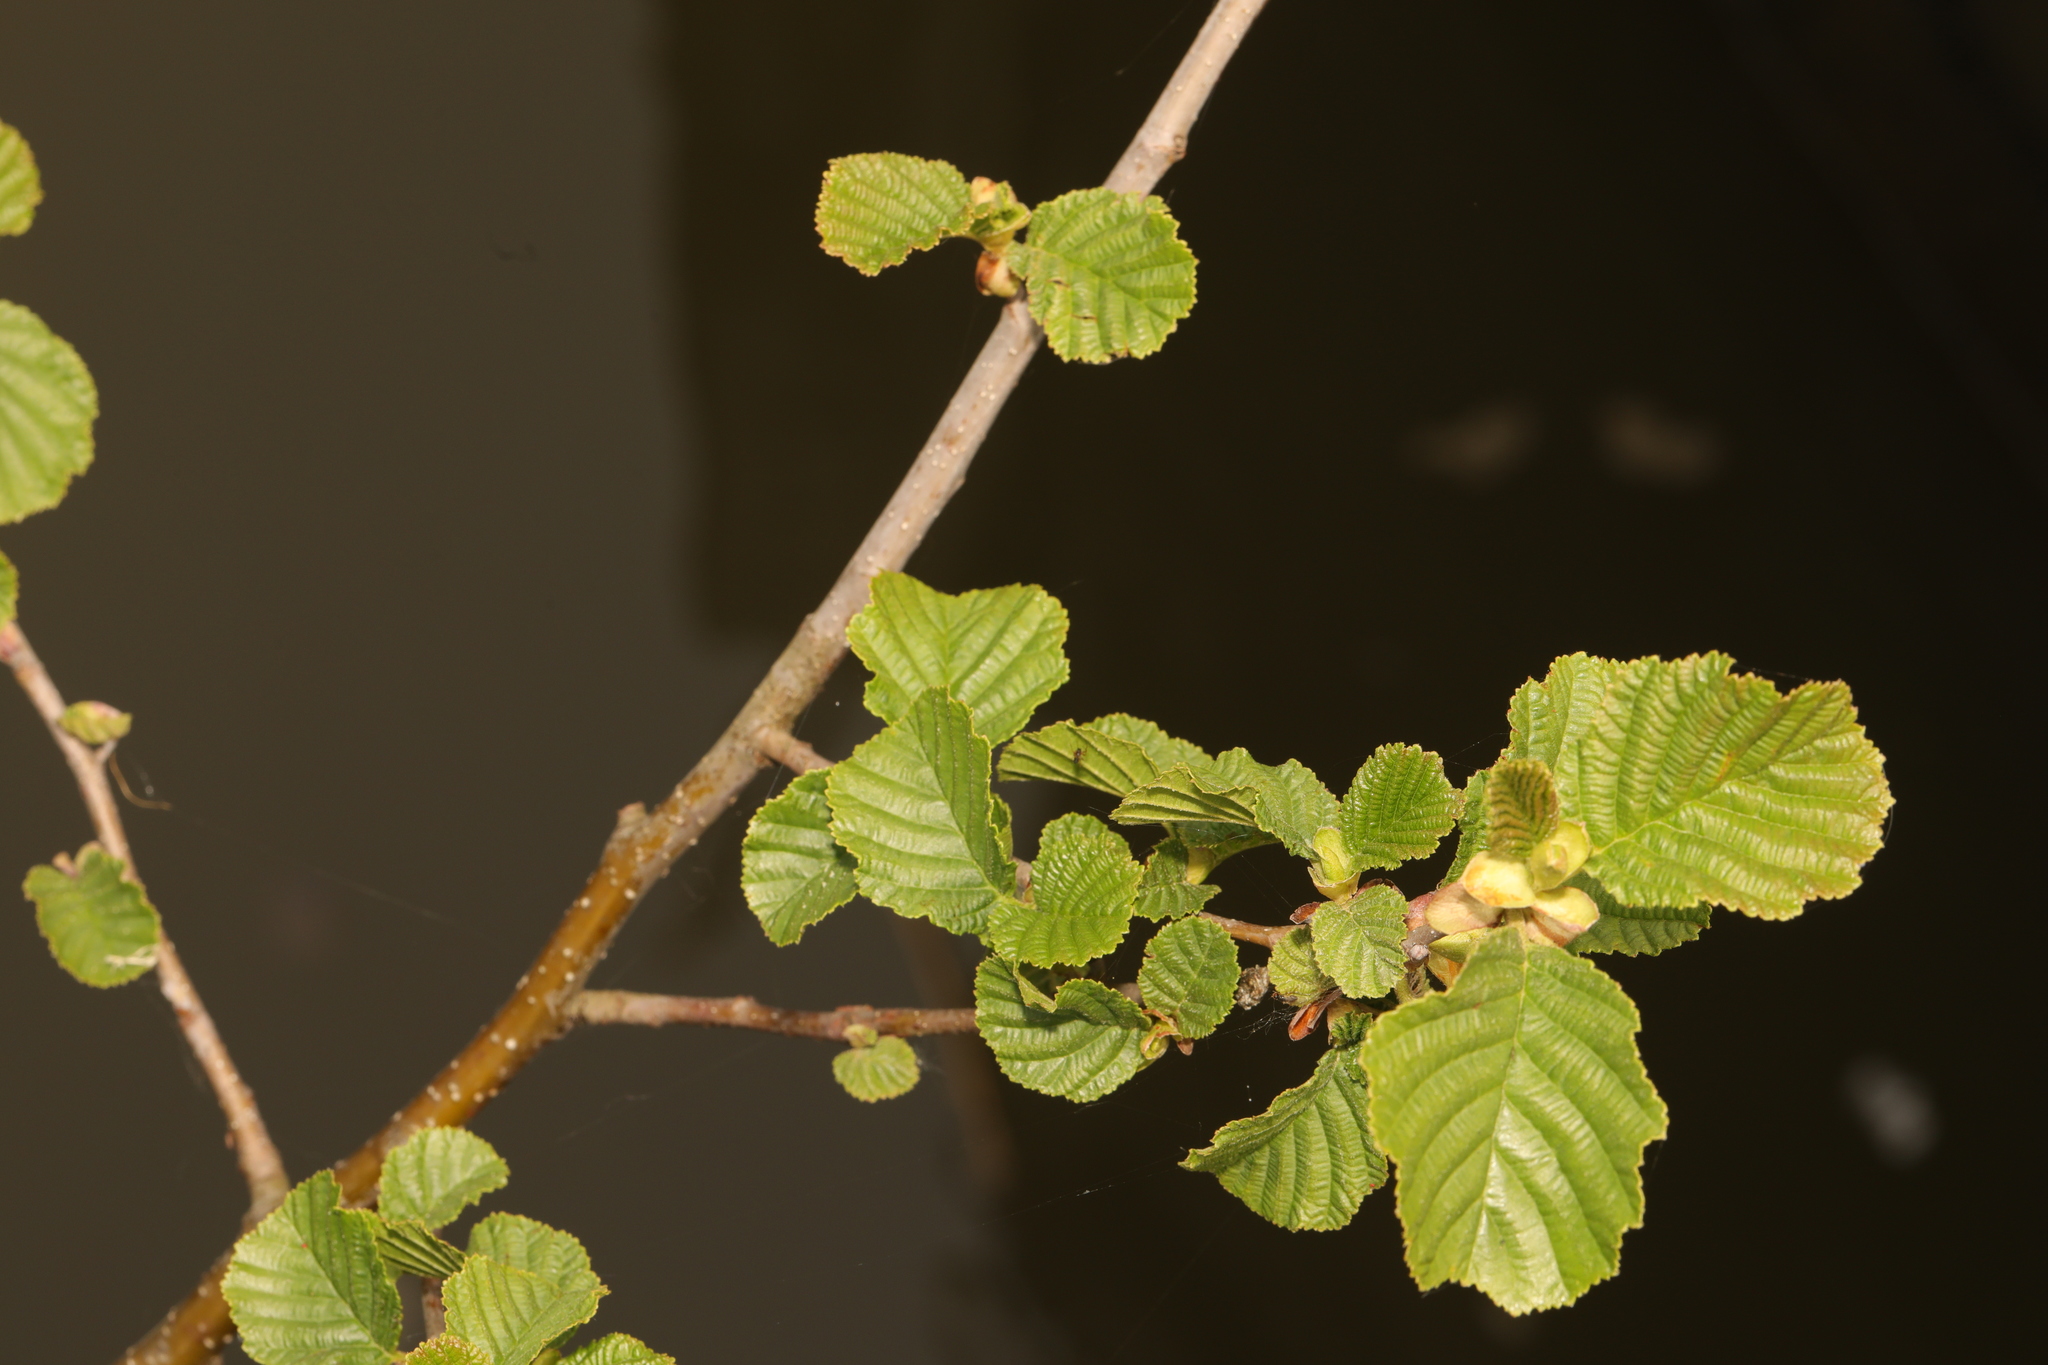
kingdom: Plantae
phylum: Tracheophyta
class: Magnoliopsida
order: Fagales
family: Betulaceae
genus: Alnus
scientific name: Alnus glutinosa
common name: Black alder
